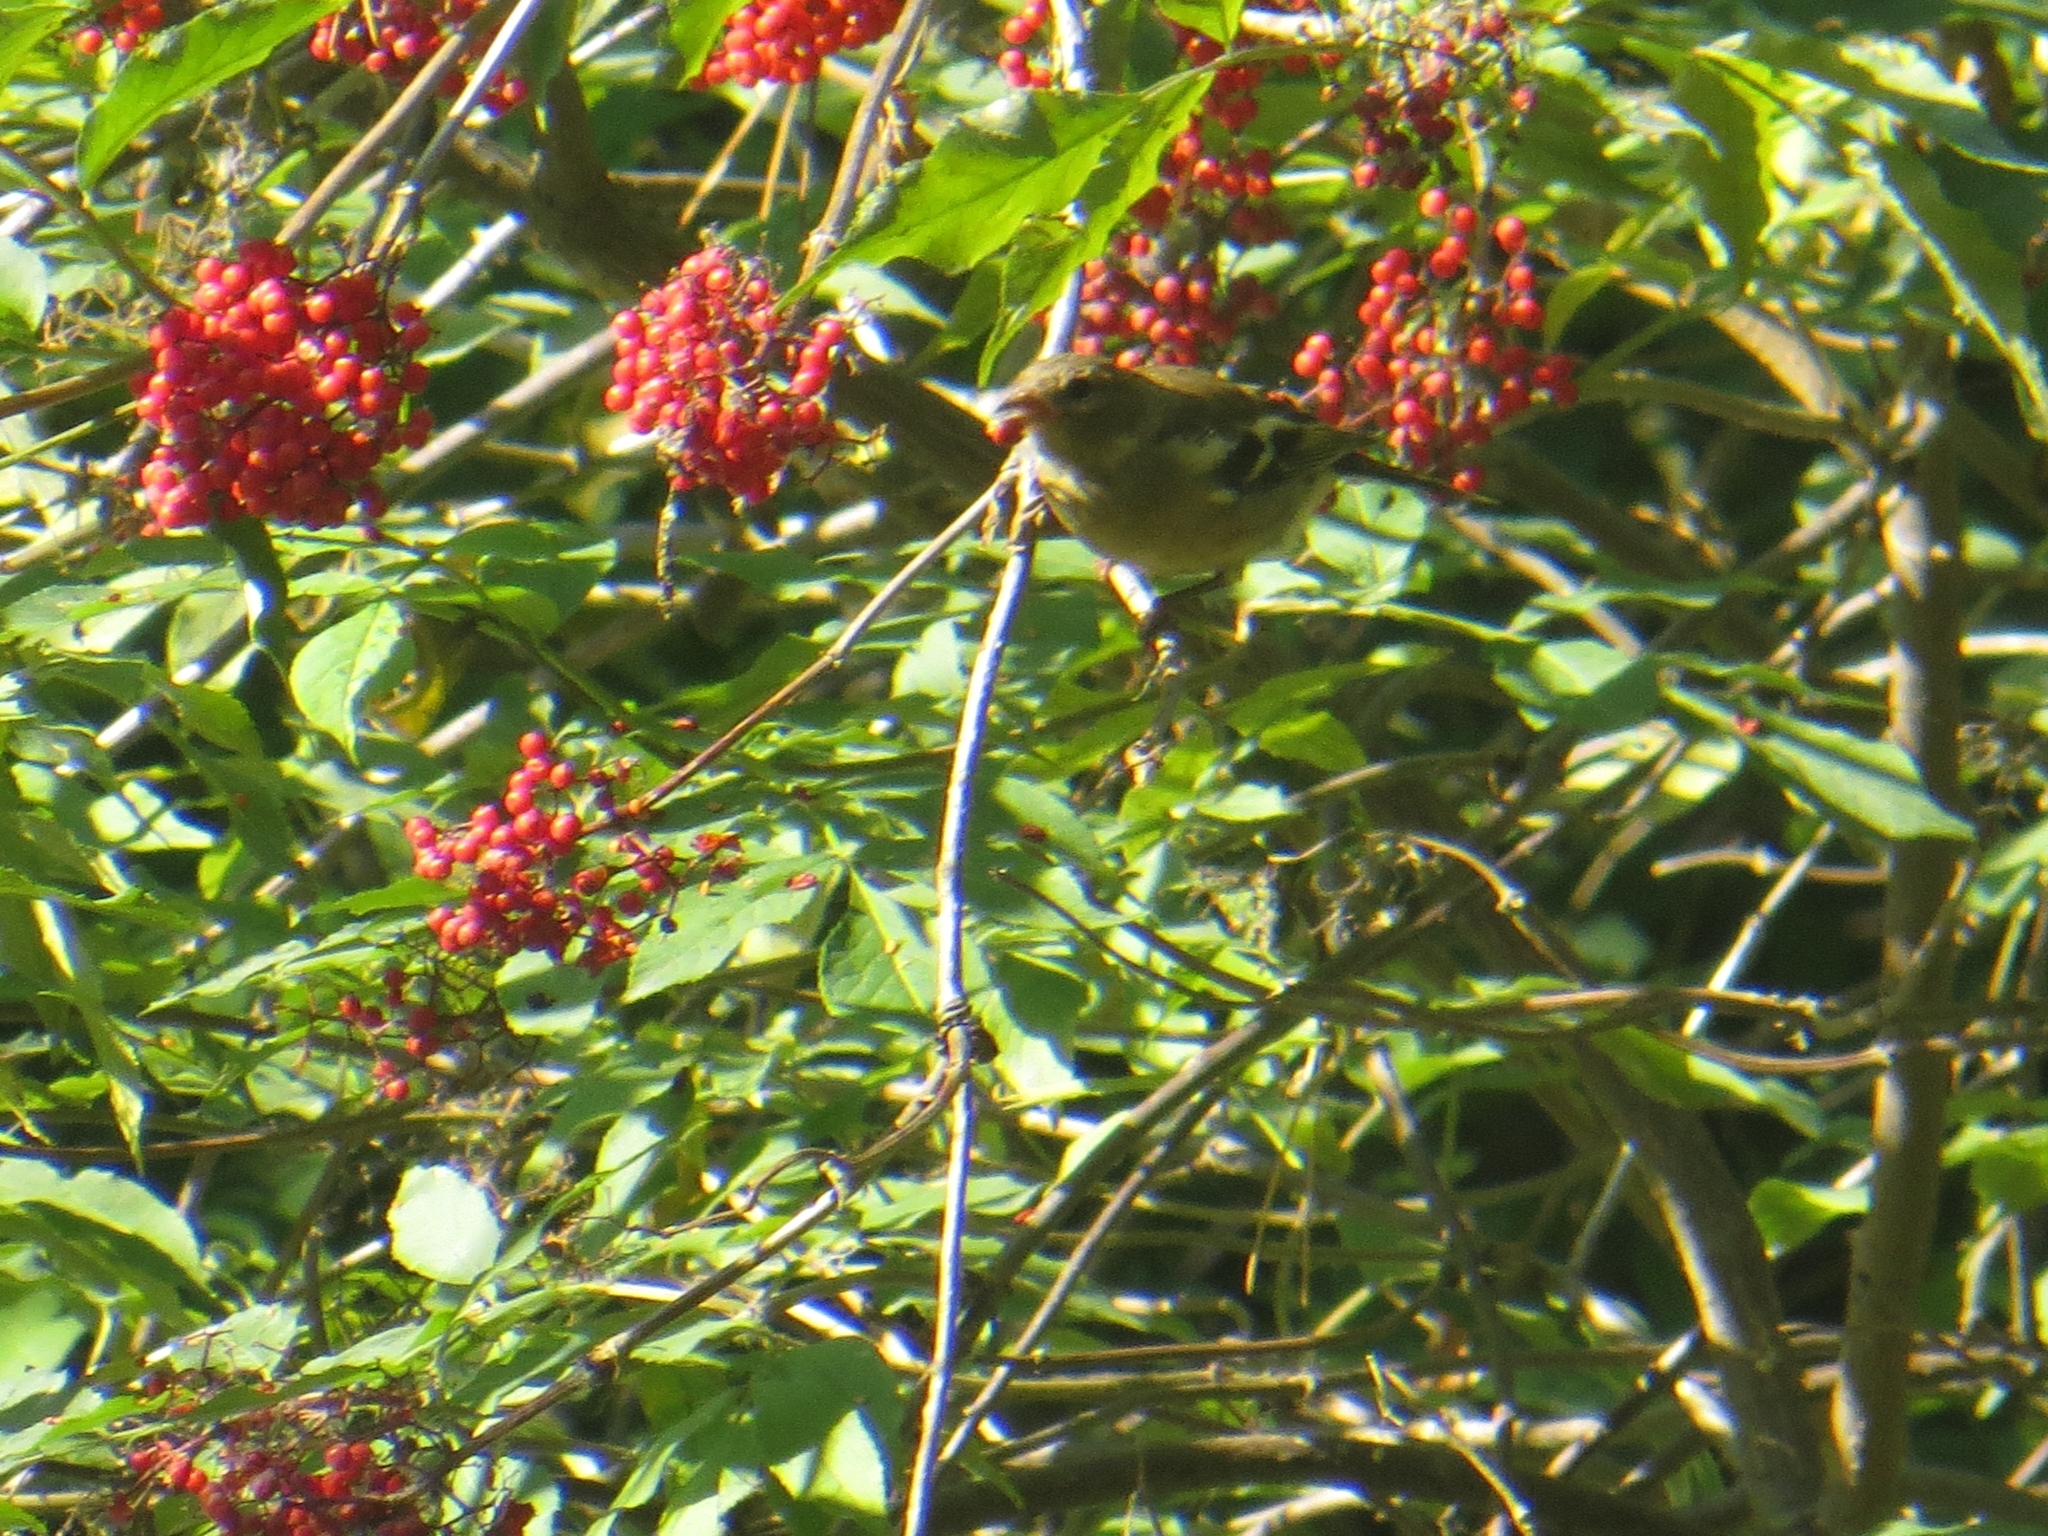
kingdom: Animalia
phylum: Chordata
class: Aves
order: Passeriformes
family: Fringillidae
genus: Fringilla
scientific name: Fringilla coelebs
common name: Common chaffinch
